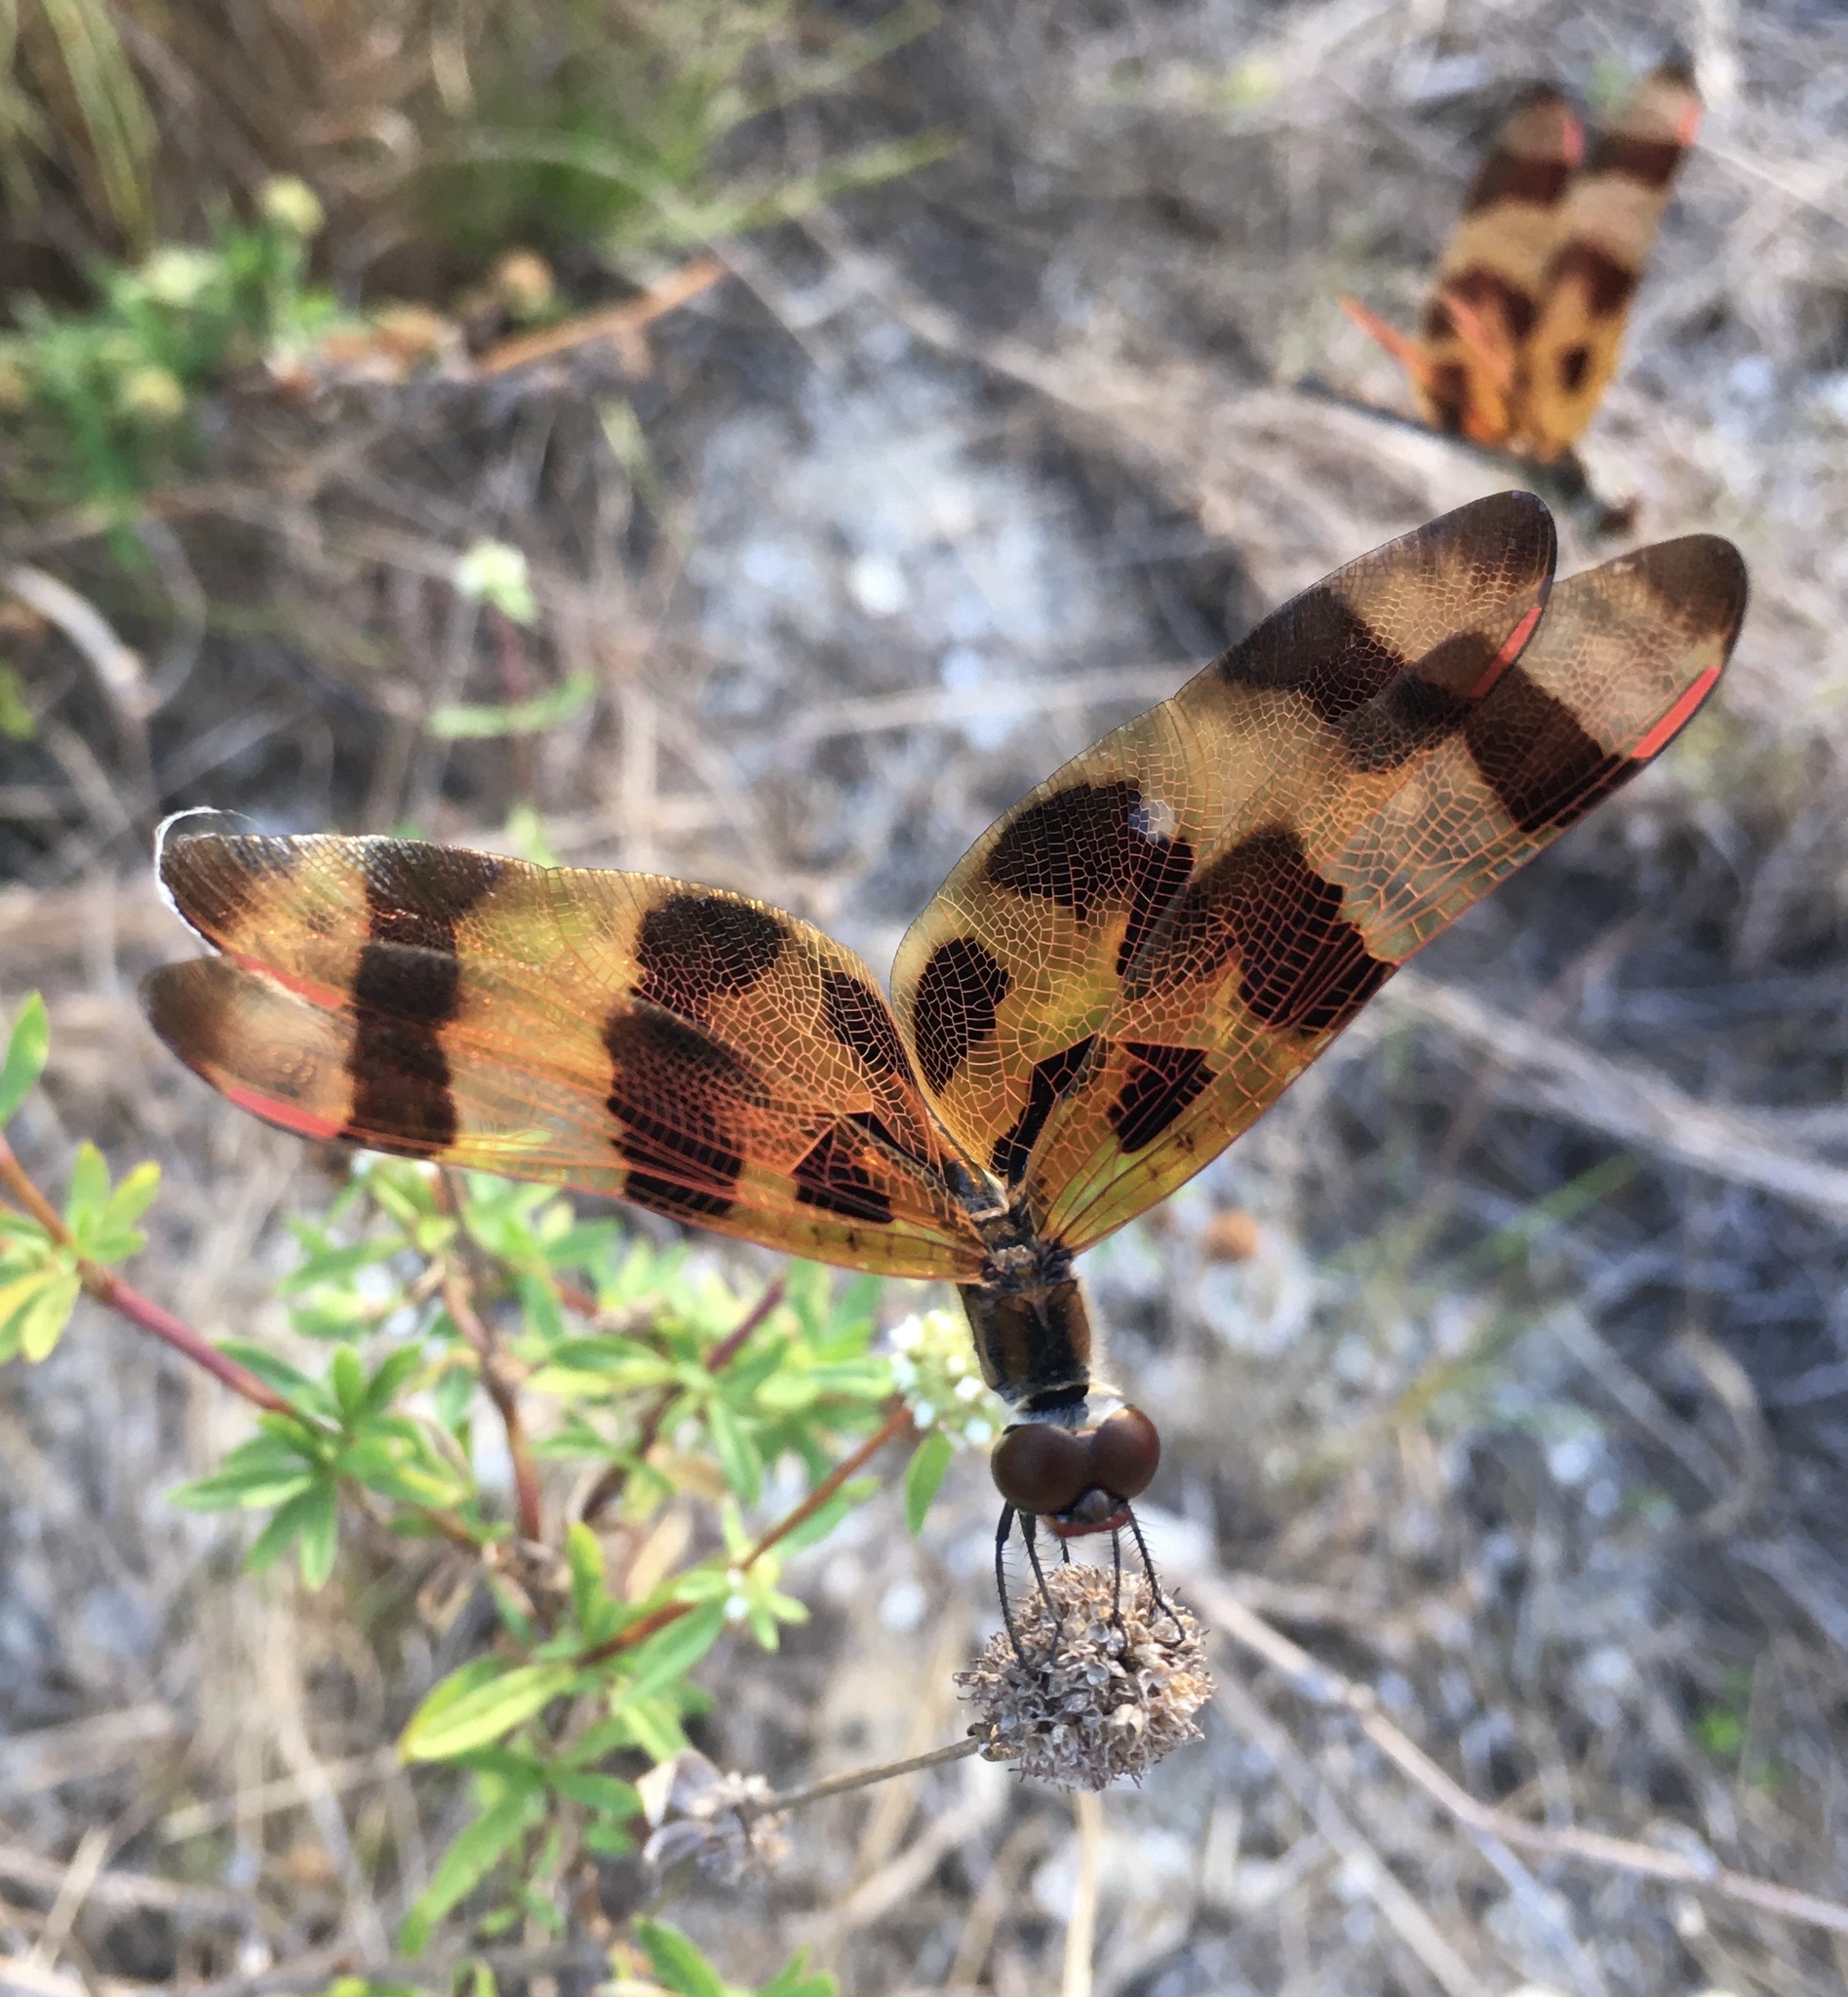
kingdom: Animalia
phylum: Arthropoda
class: Insecta
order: Odonata
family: Libellulidae
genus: Celithemis
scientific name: Celithemis eponina
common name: Halloween pennant
